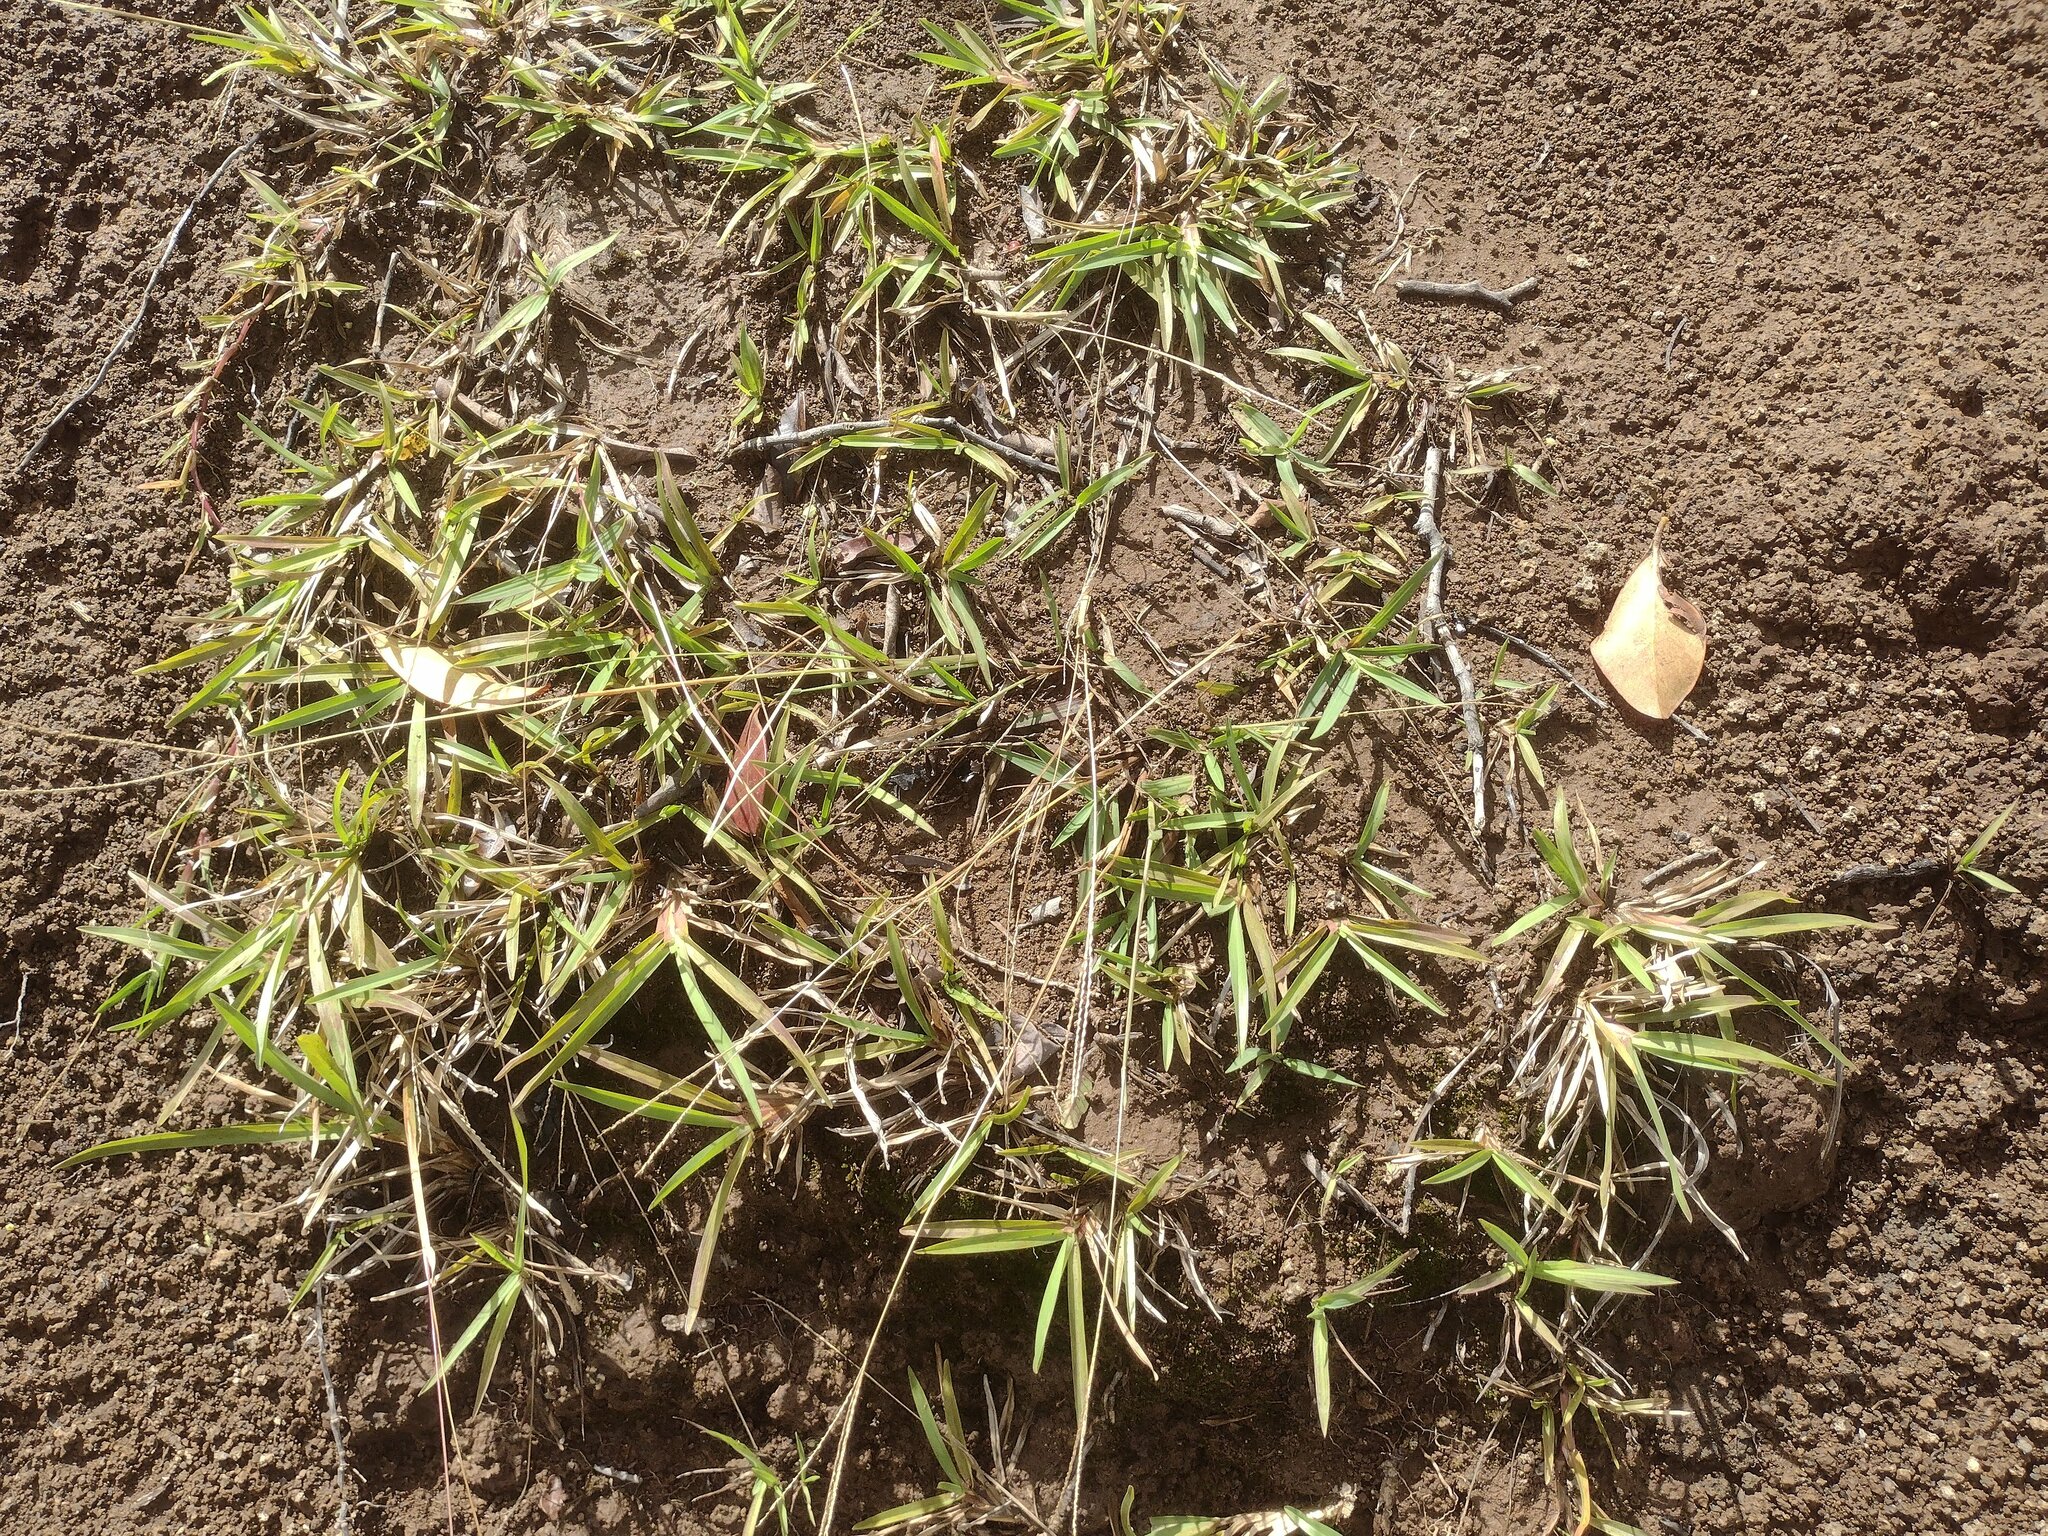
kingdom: Plantae
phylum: Tracheophyta
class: Liliopsida
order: Poales
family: Poaceae
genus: Axonopus
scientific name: Axonopus fissifolius
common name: Common carpetgrass
